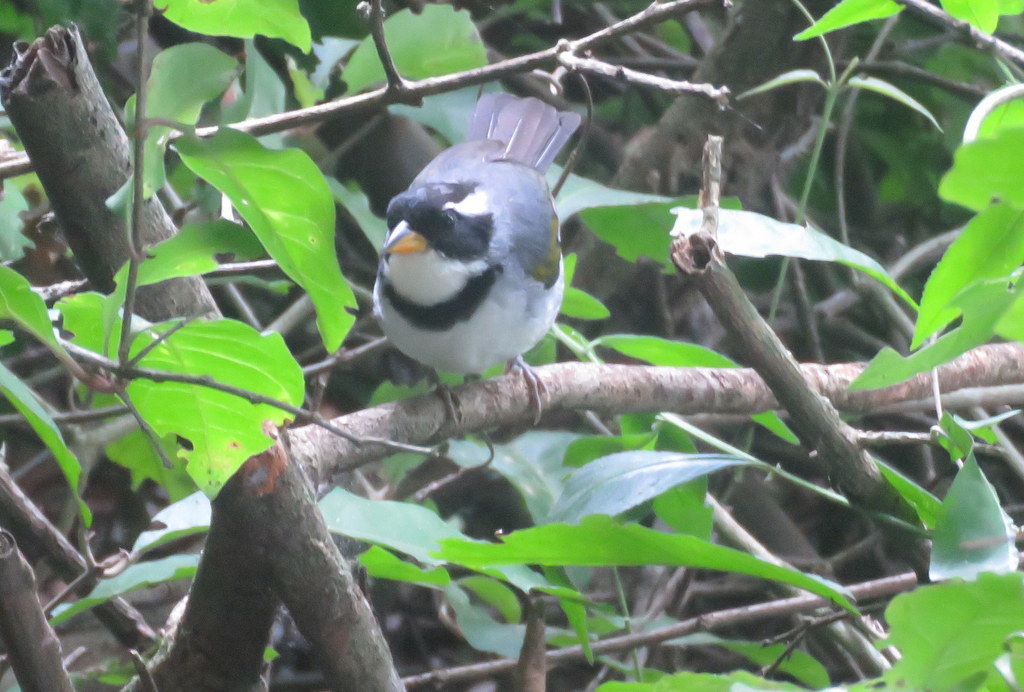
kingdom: Animalia
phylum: Chordata
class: Aves
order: Passeriformes
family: Passerellidae
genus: Arremon
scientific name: Arremon flavirostris
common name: Saffron-billed sparrow
